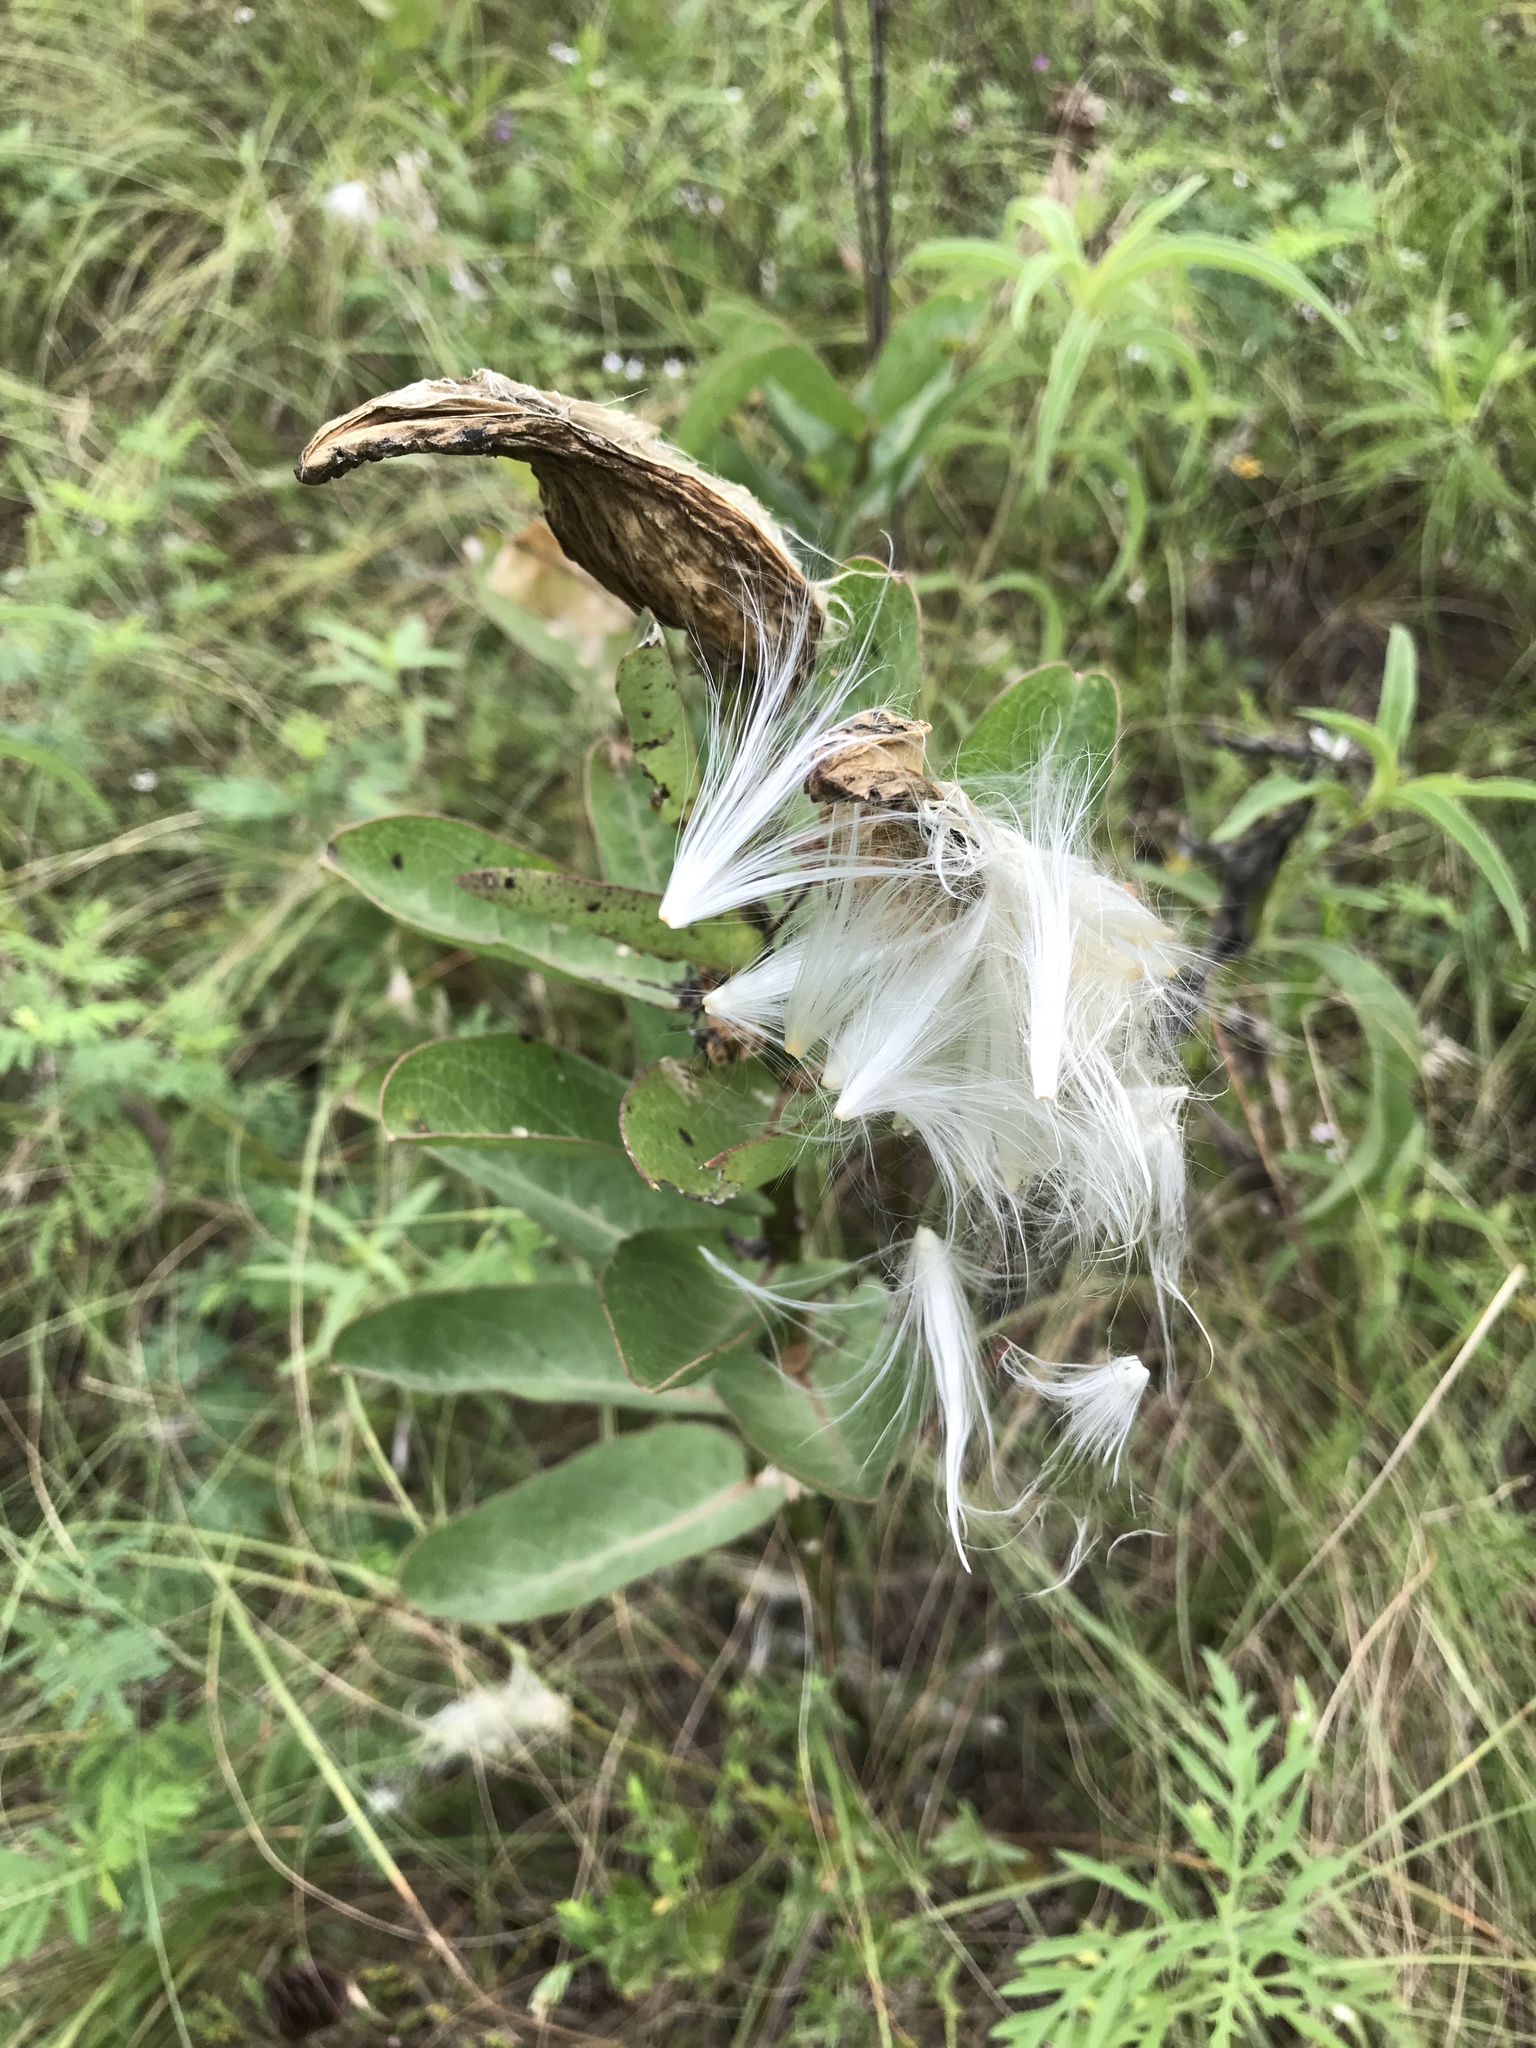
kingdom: Plantae
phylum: Tracheophyta
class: Magnoliopsida
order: Gentianales
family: Apocynaceae
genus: Asclepias
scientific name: Asclepias viridis
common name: Antelope-horns
